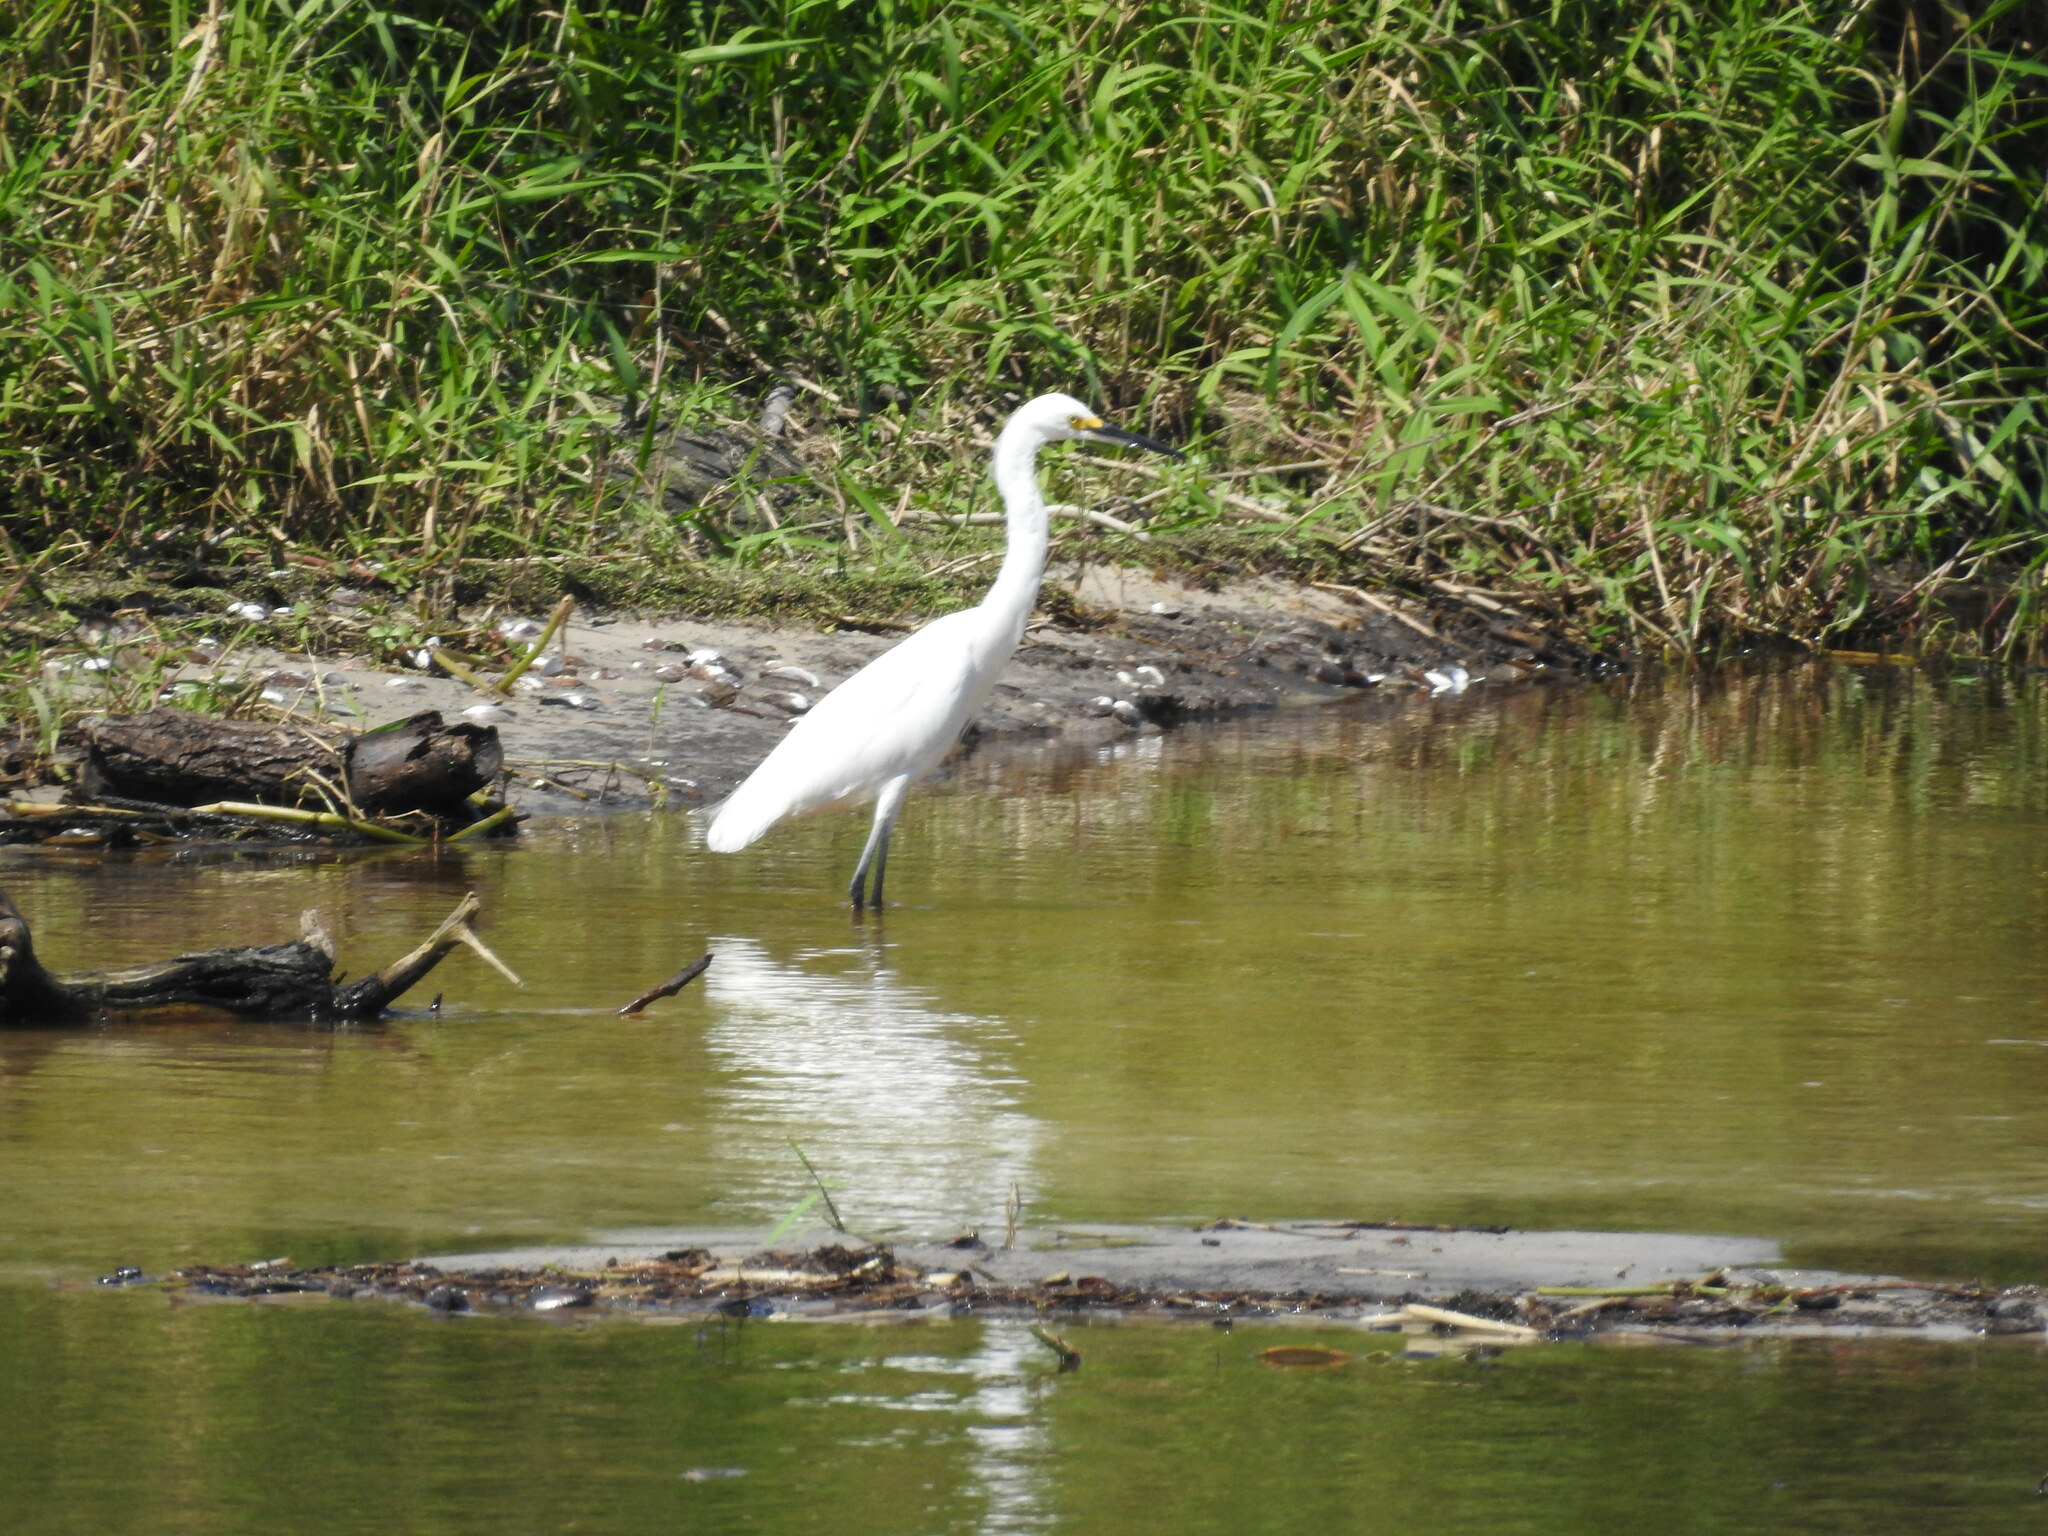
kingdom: Animalia
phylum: Chordata
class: Aves
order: Pelecaniformes
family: Ardeidae
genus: Egretta
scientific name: Egretta thula
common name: Snowy egret
